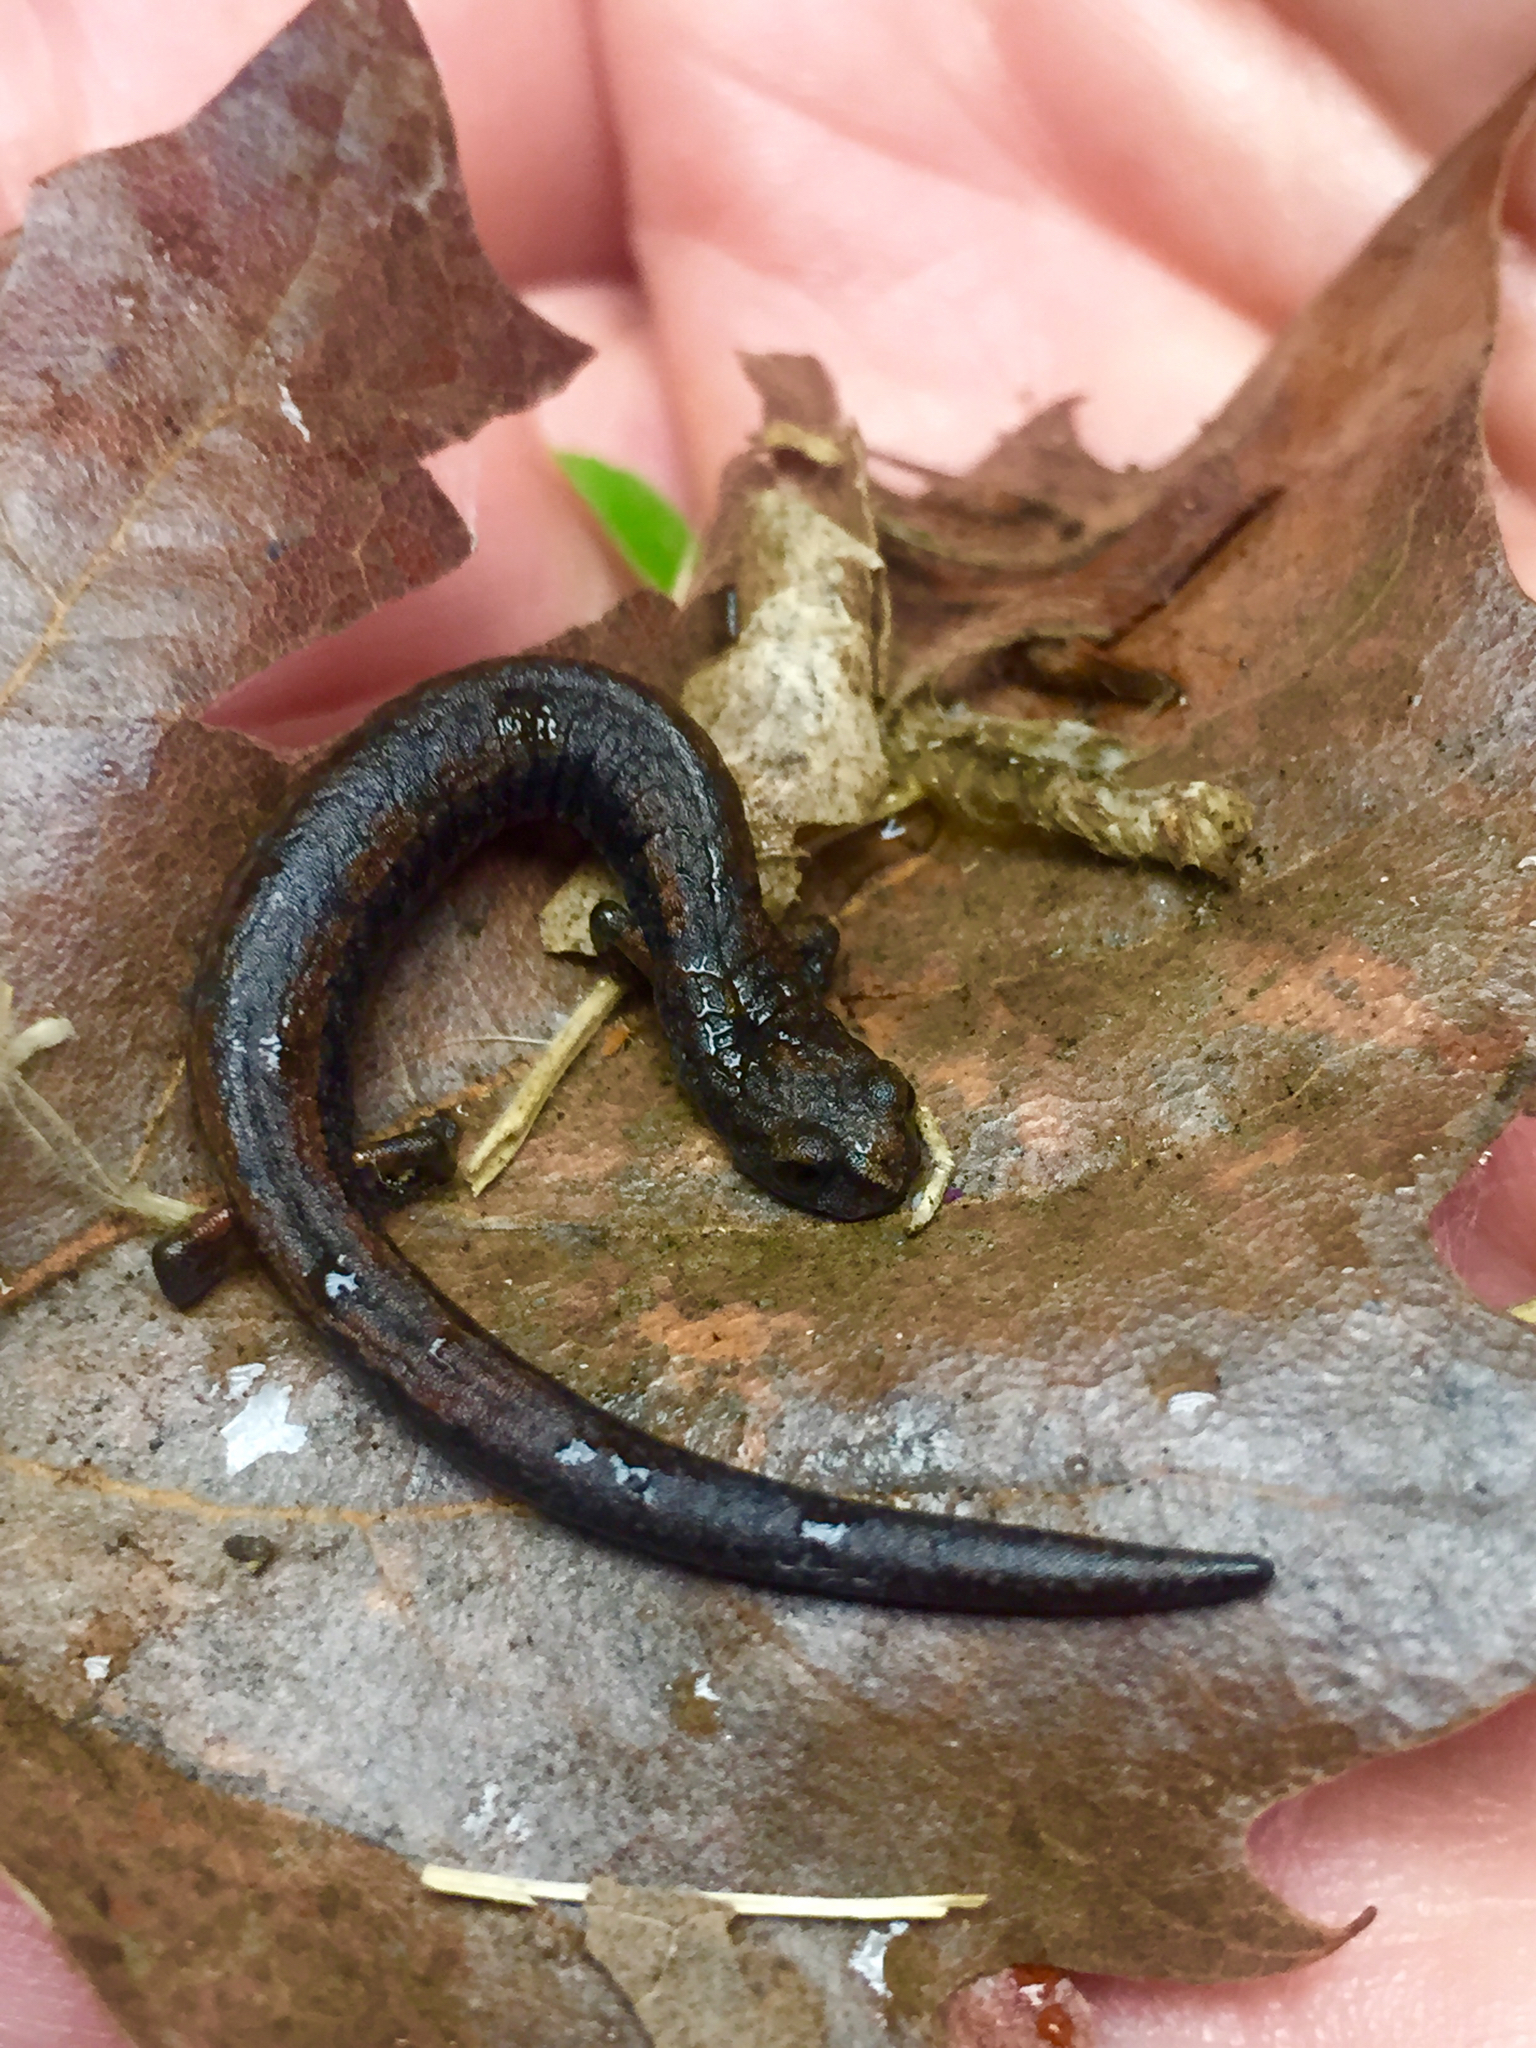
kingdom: Animalia
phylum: Chordata
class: Amphibia
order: Caudata
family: Plethodontidae
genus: Batrachoseps
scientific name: Batrachoseps attenuatus
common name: California slender salamander
